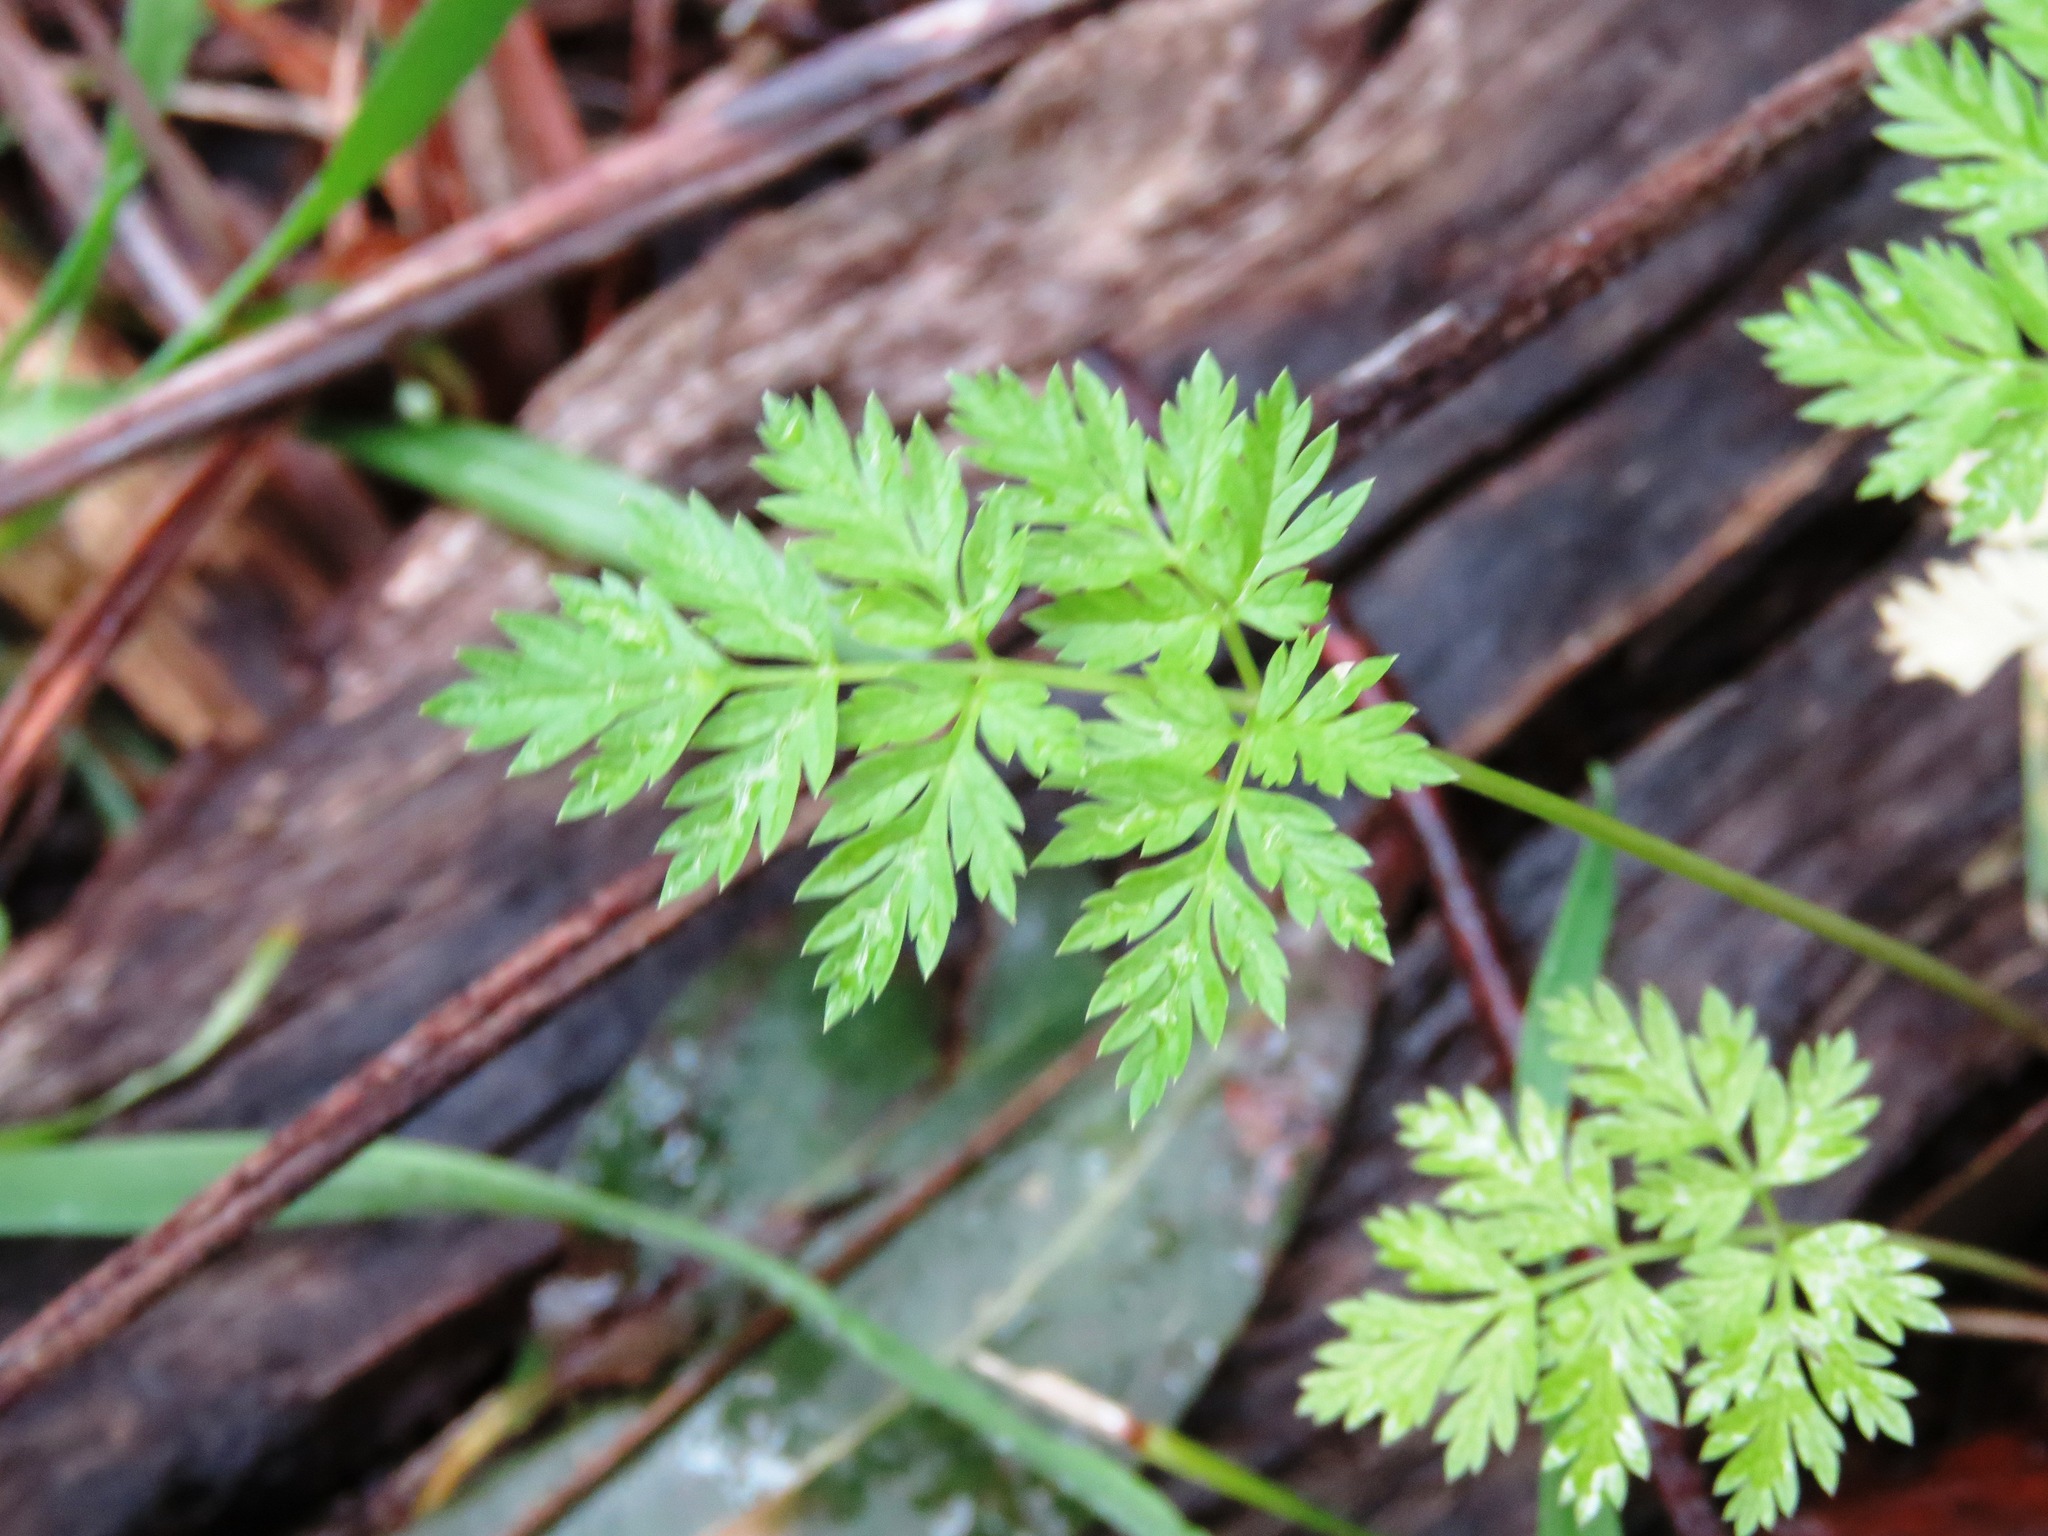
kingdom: Plantae
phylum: Tracheophyta
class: Magnoliopsida
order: Apiales
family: Apiaceae
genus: Conium
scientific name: Conium maculatum
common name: Hemlock
